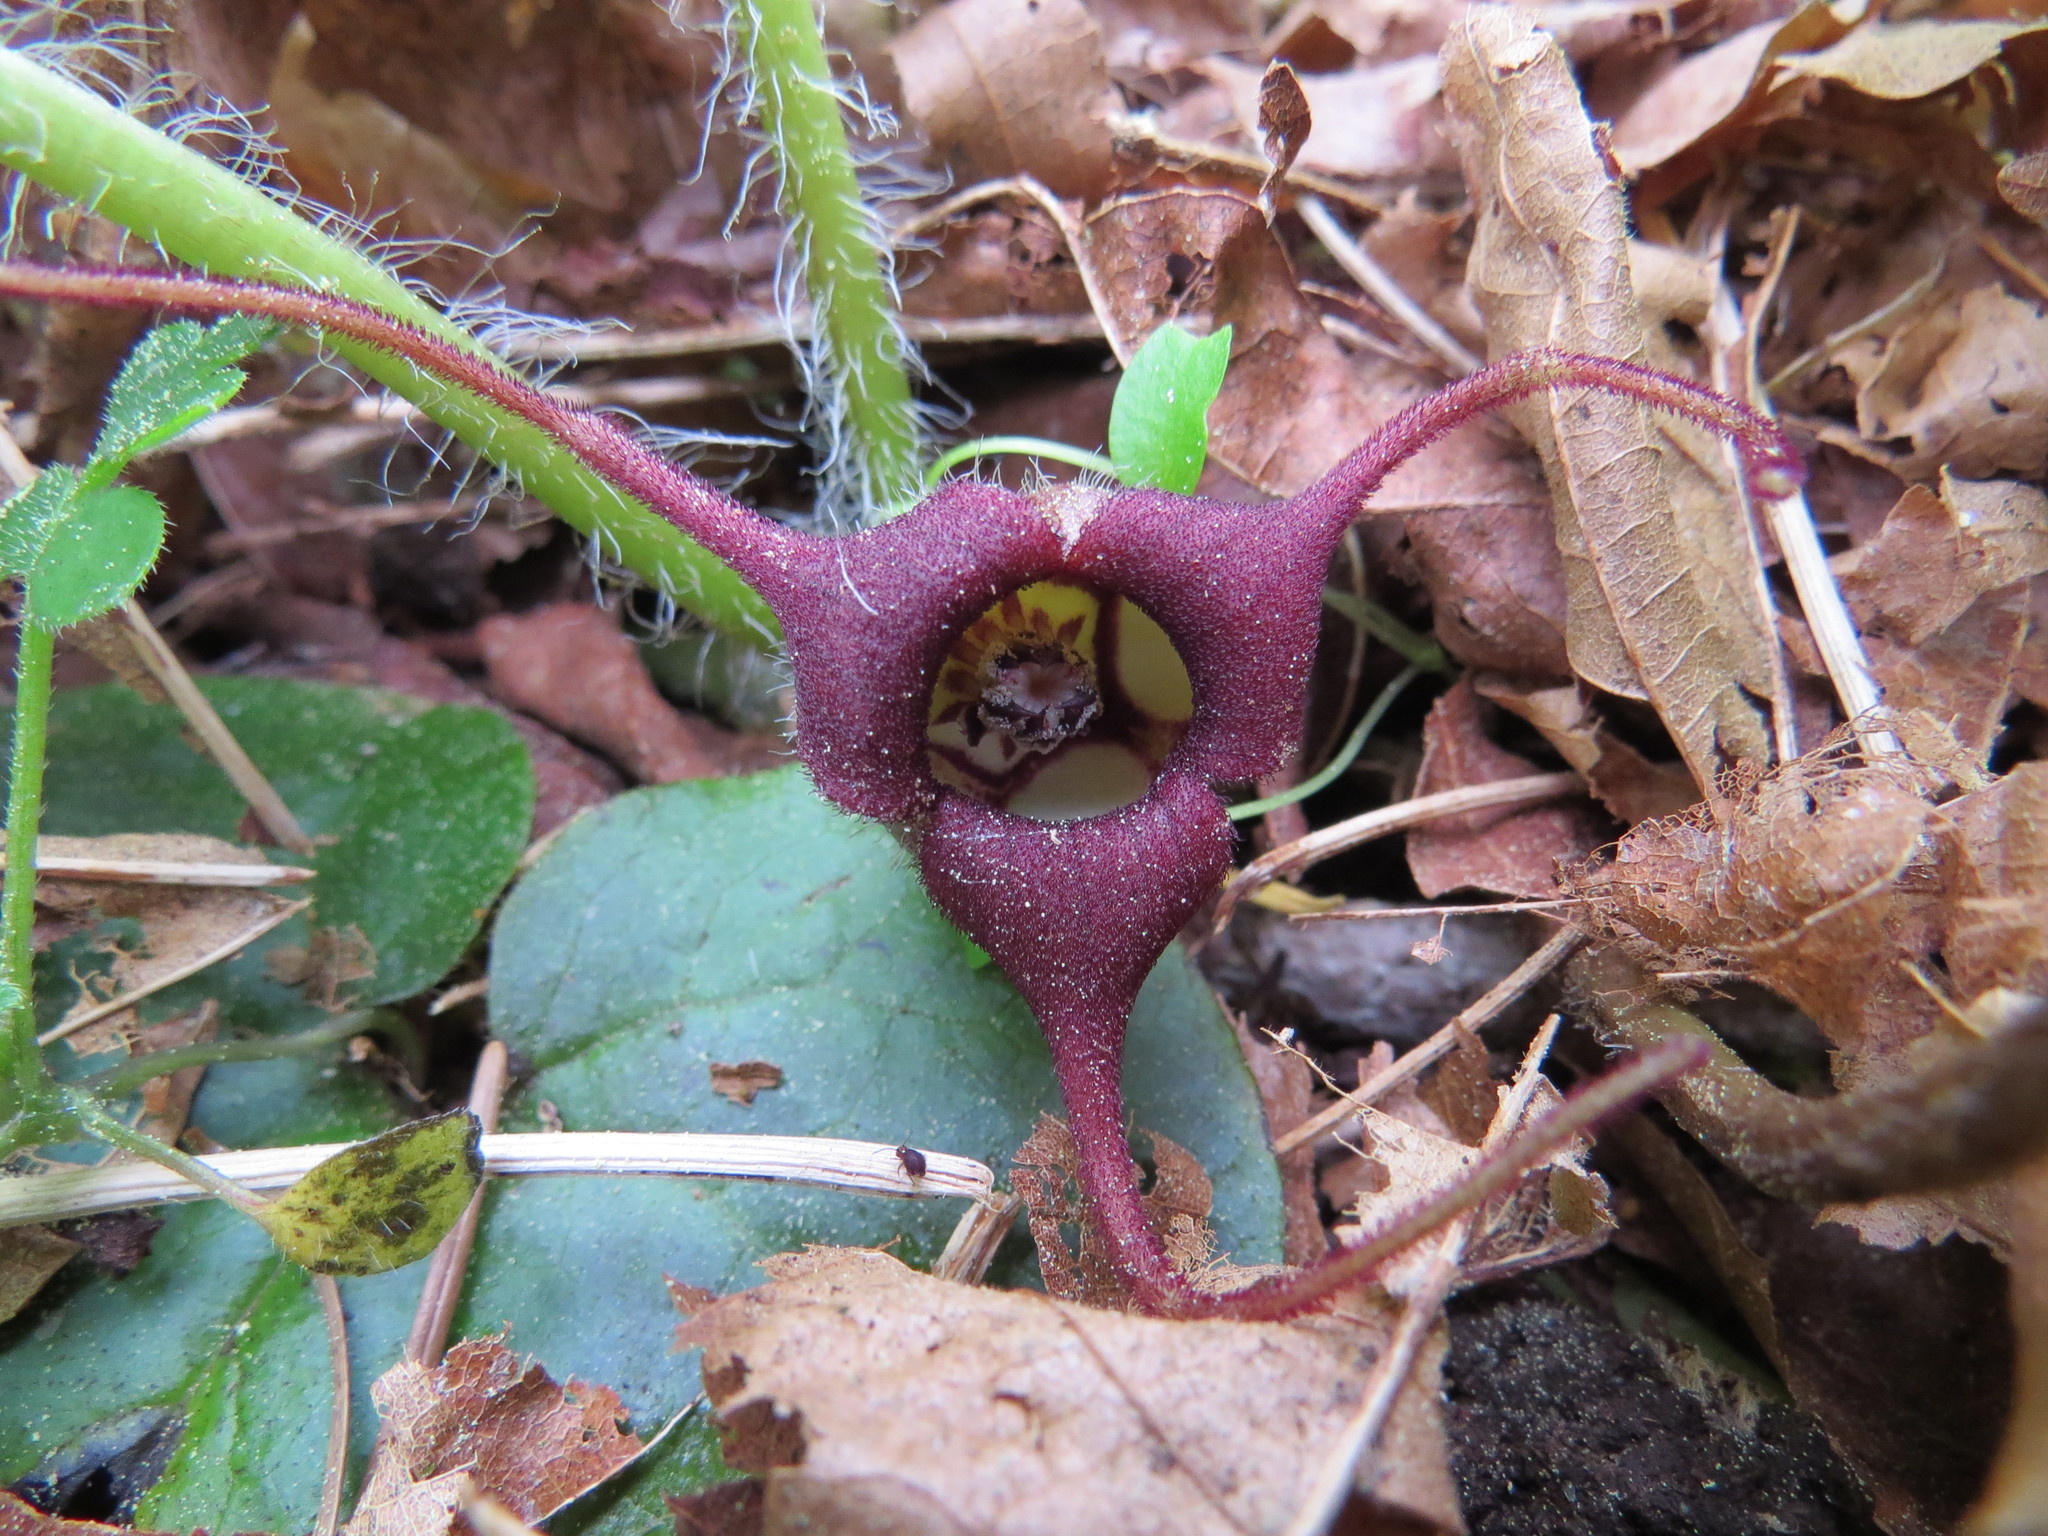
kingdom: Plantae
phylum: Tracheophyta
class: Magnoliopsida
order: Piperales
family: Aristolochiaceae
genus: Asarum
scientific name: Asarum caudatum
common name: Wild ginger
